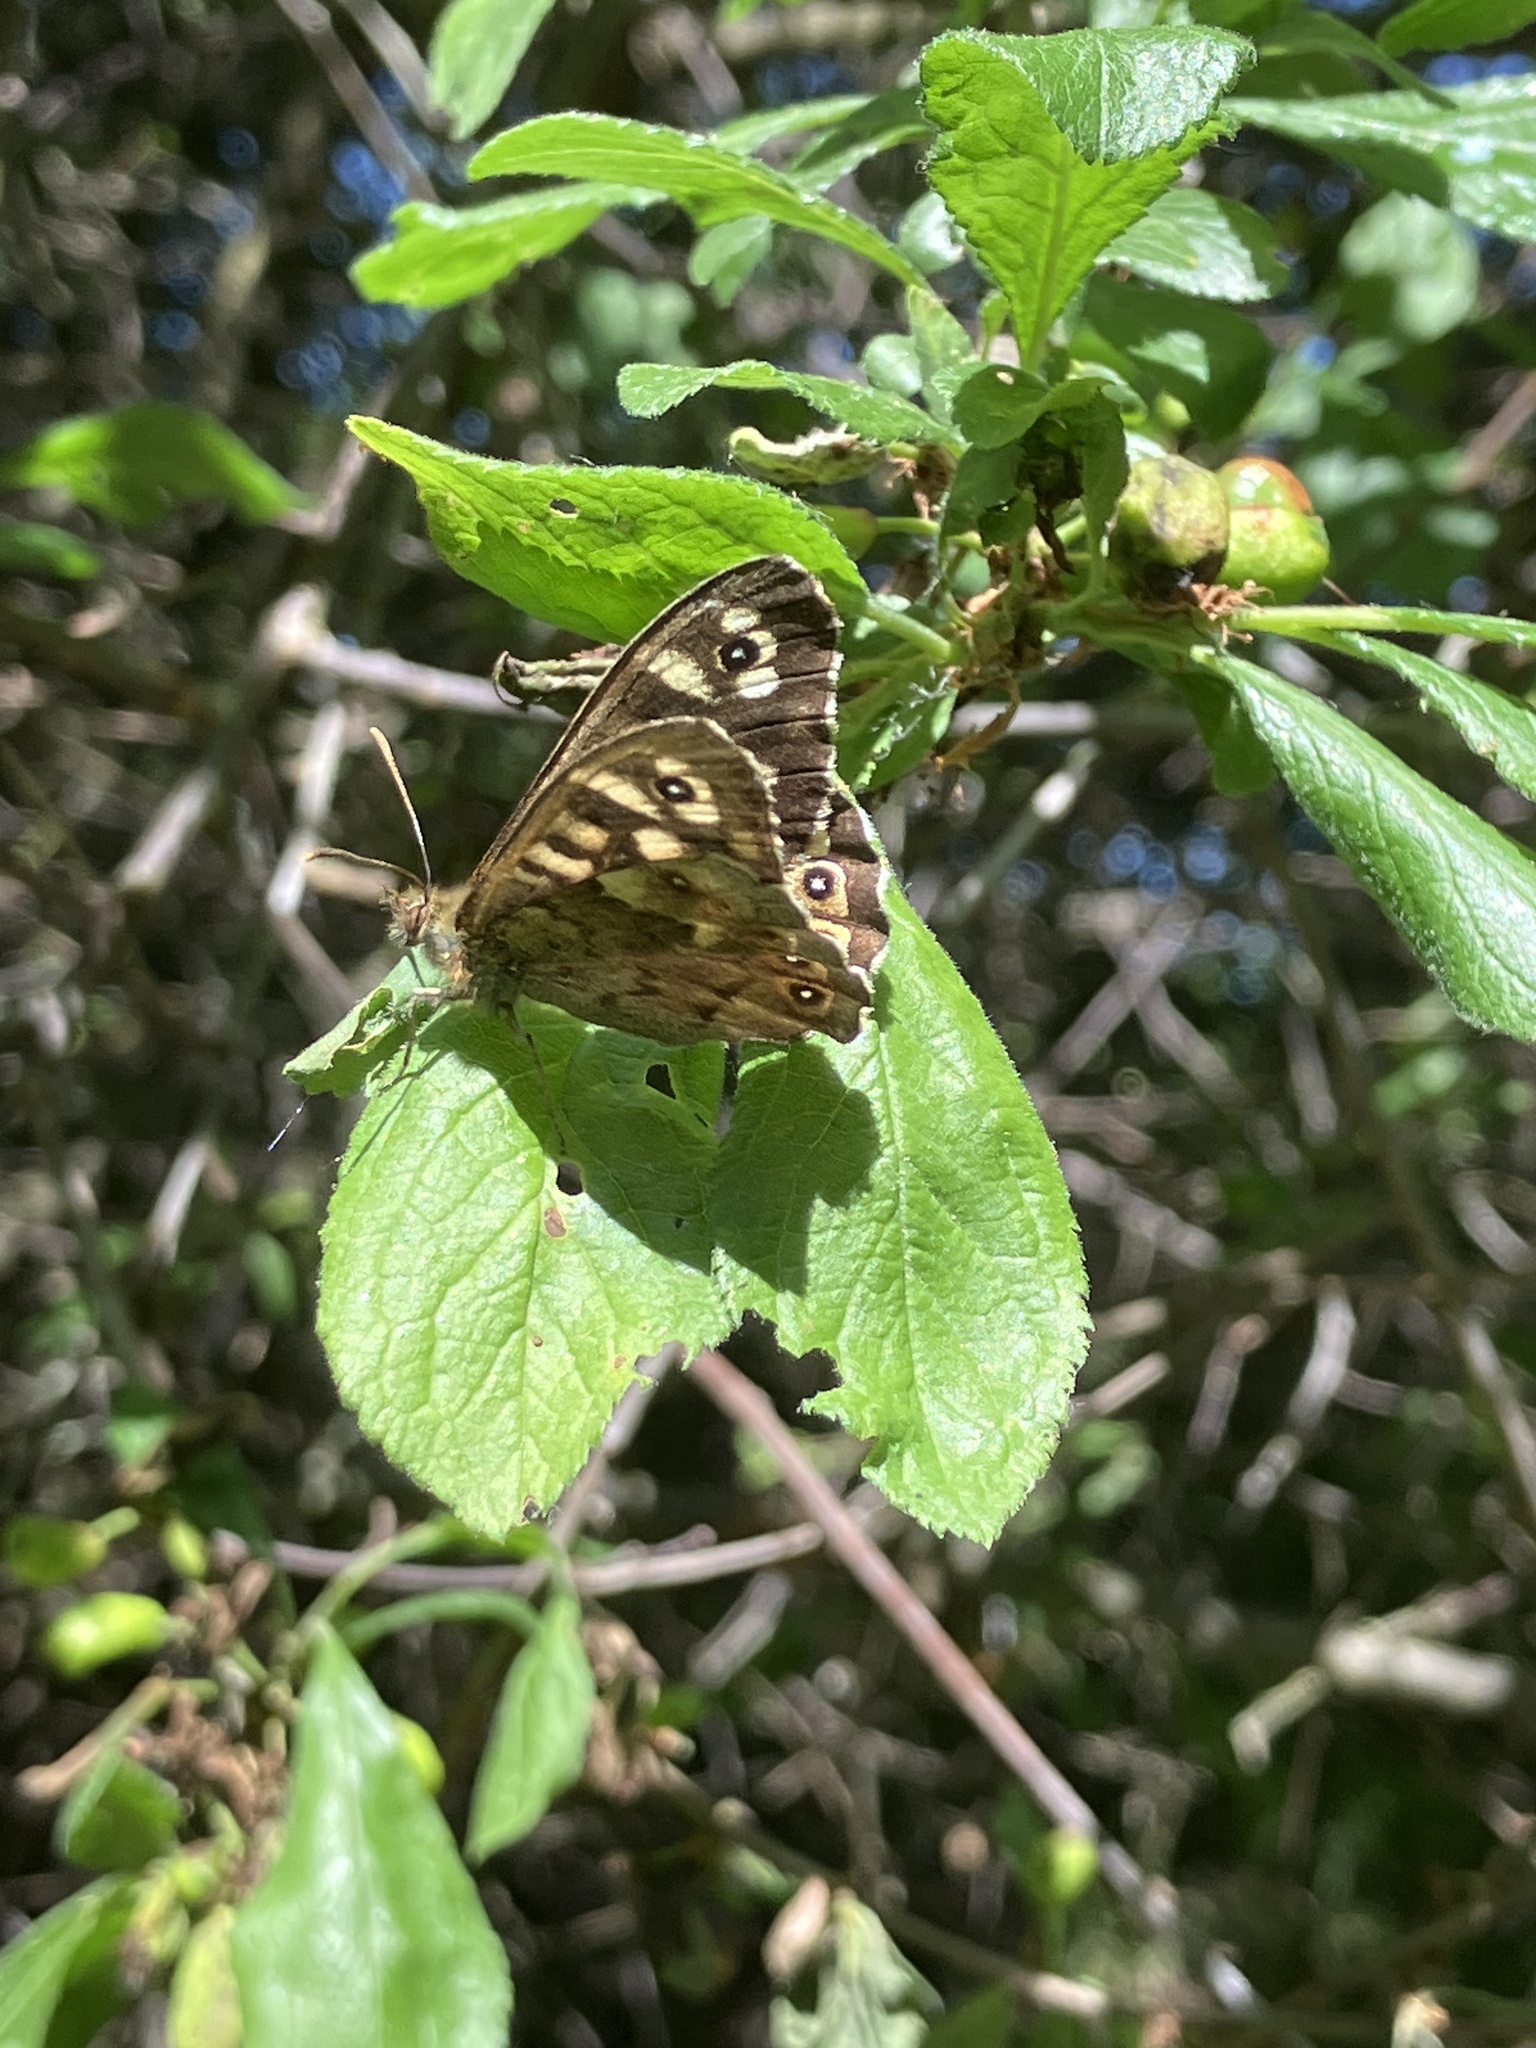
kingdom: Animalia
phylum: Arthropoda
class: Insecta
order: Lepidoptera
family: Nymphalidae
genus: Pararge
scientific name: Pararge aegeria
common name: Speckled wood
